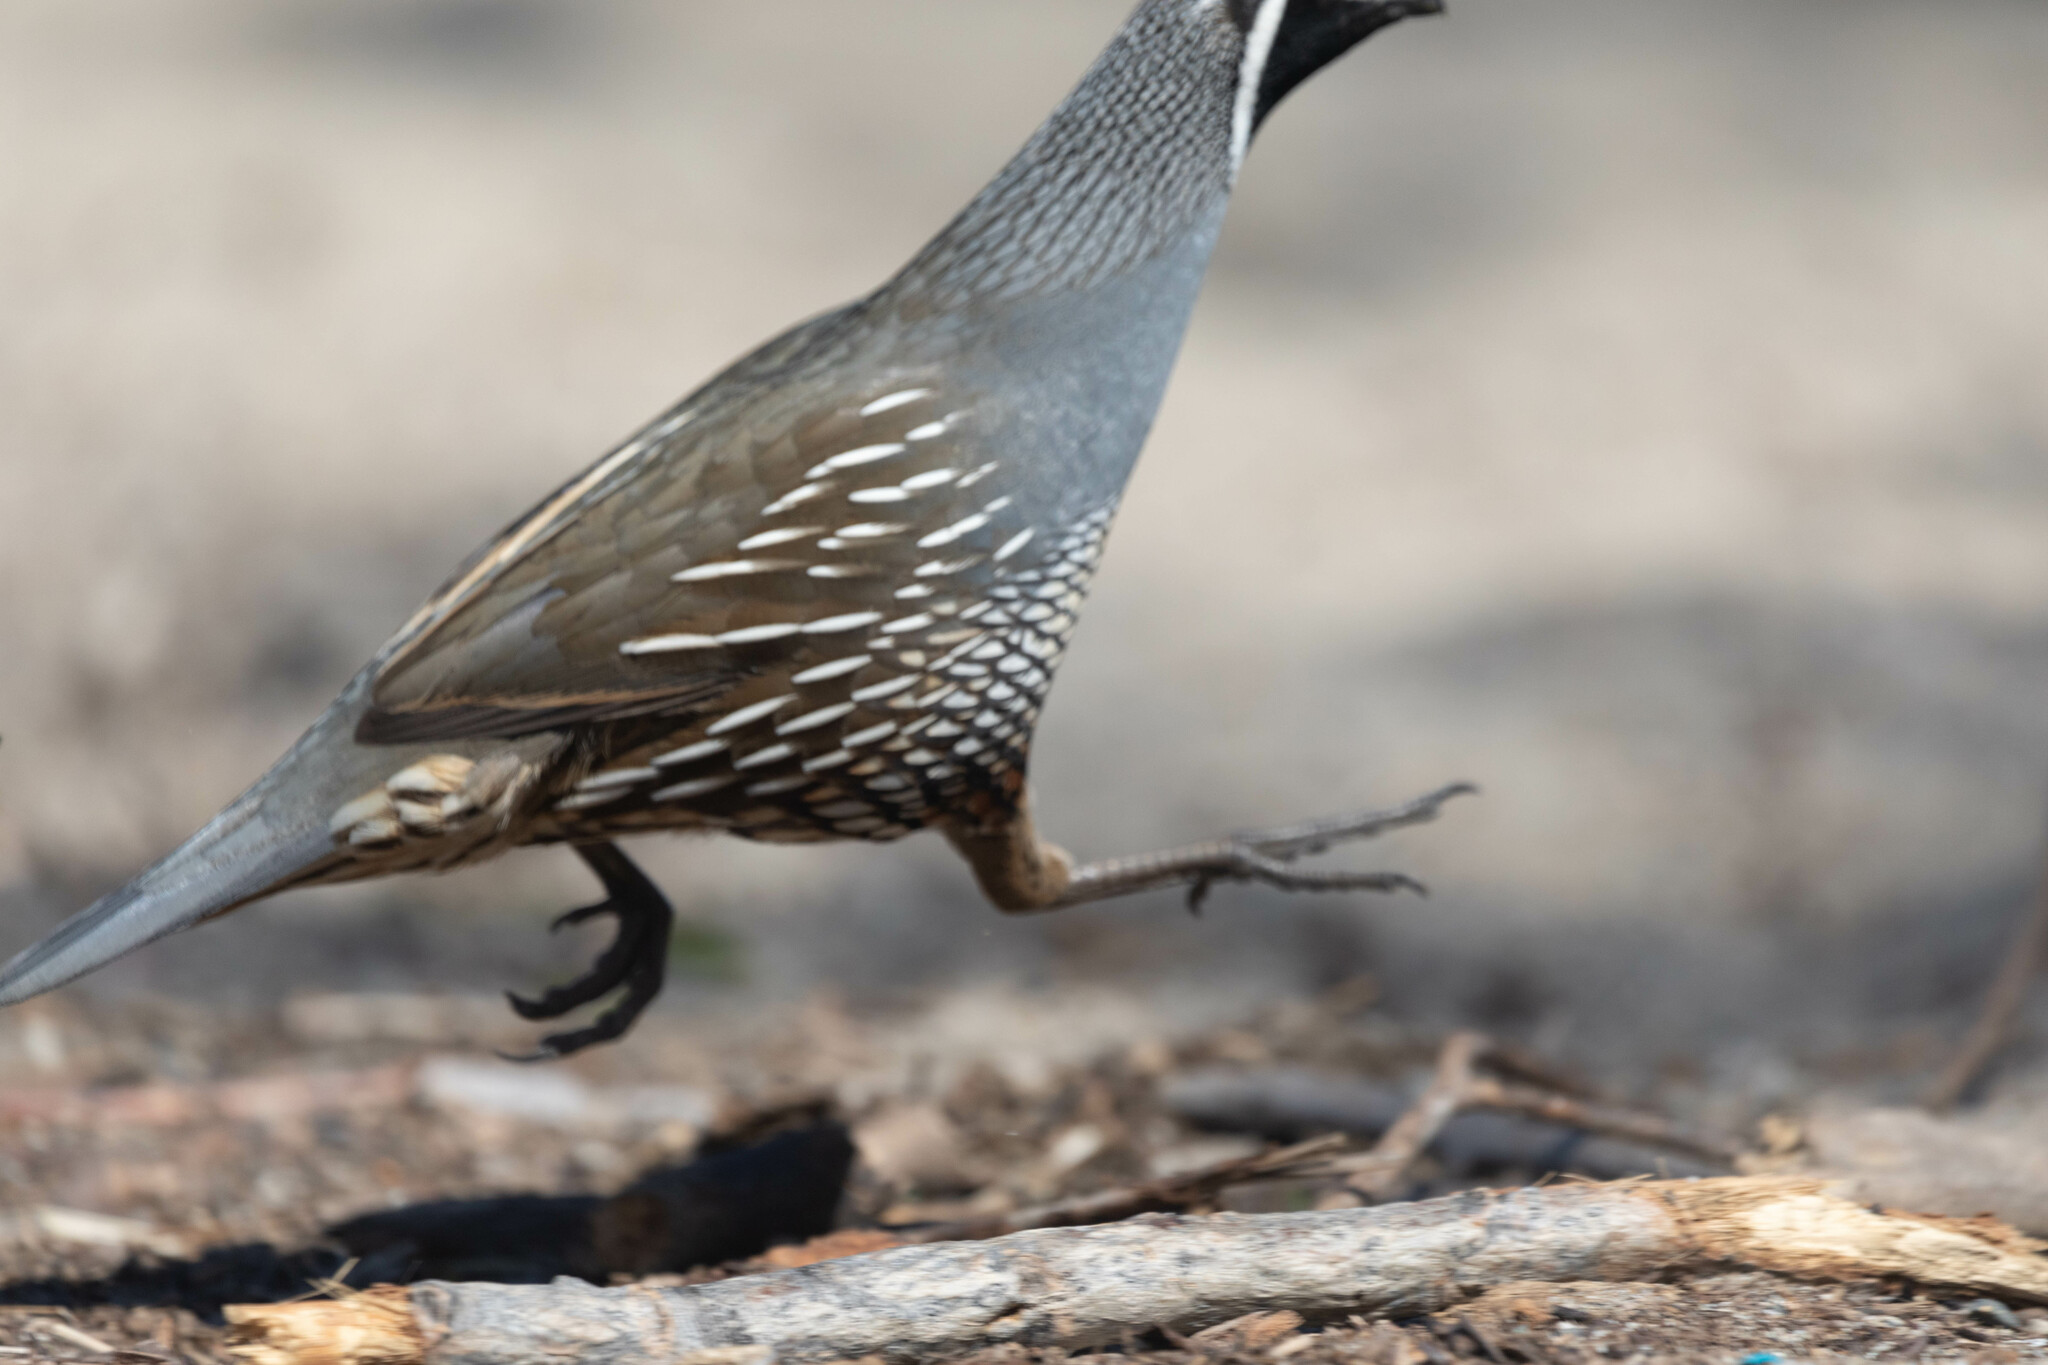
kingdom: Animalia
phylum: Chordata
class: Aves
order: Galliformes
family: Odontophoridae
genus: Callipepla
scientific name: Callipepla californica
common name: California quail
